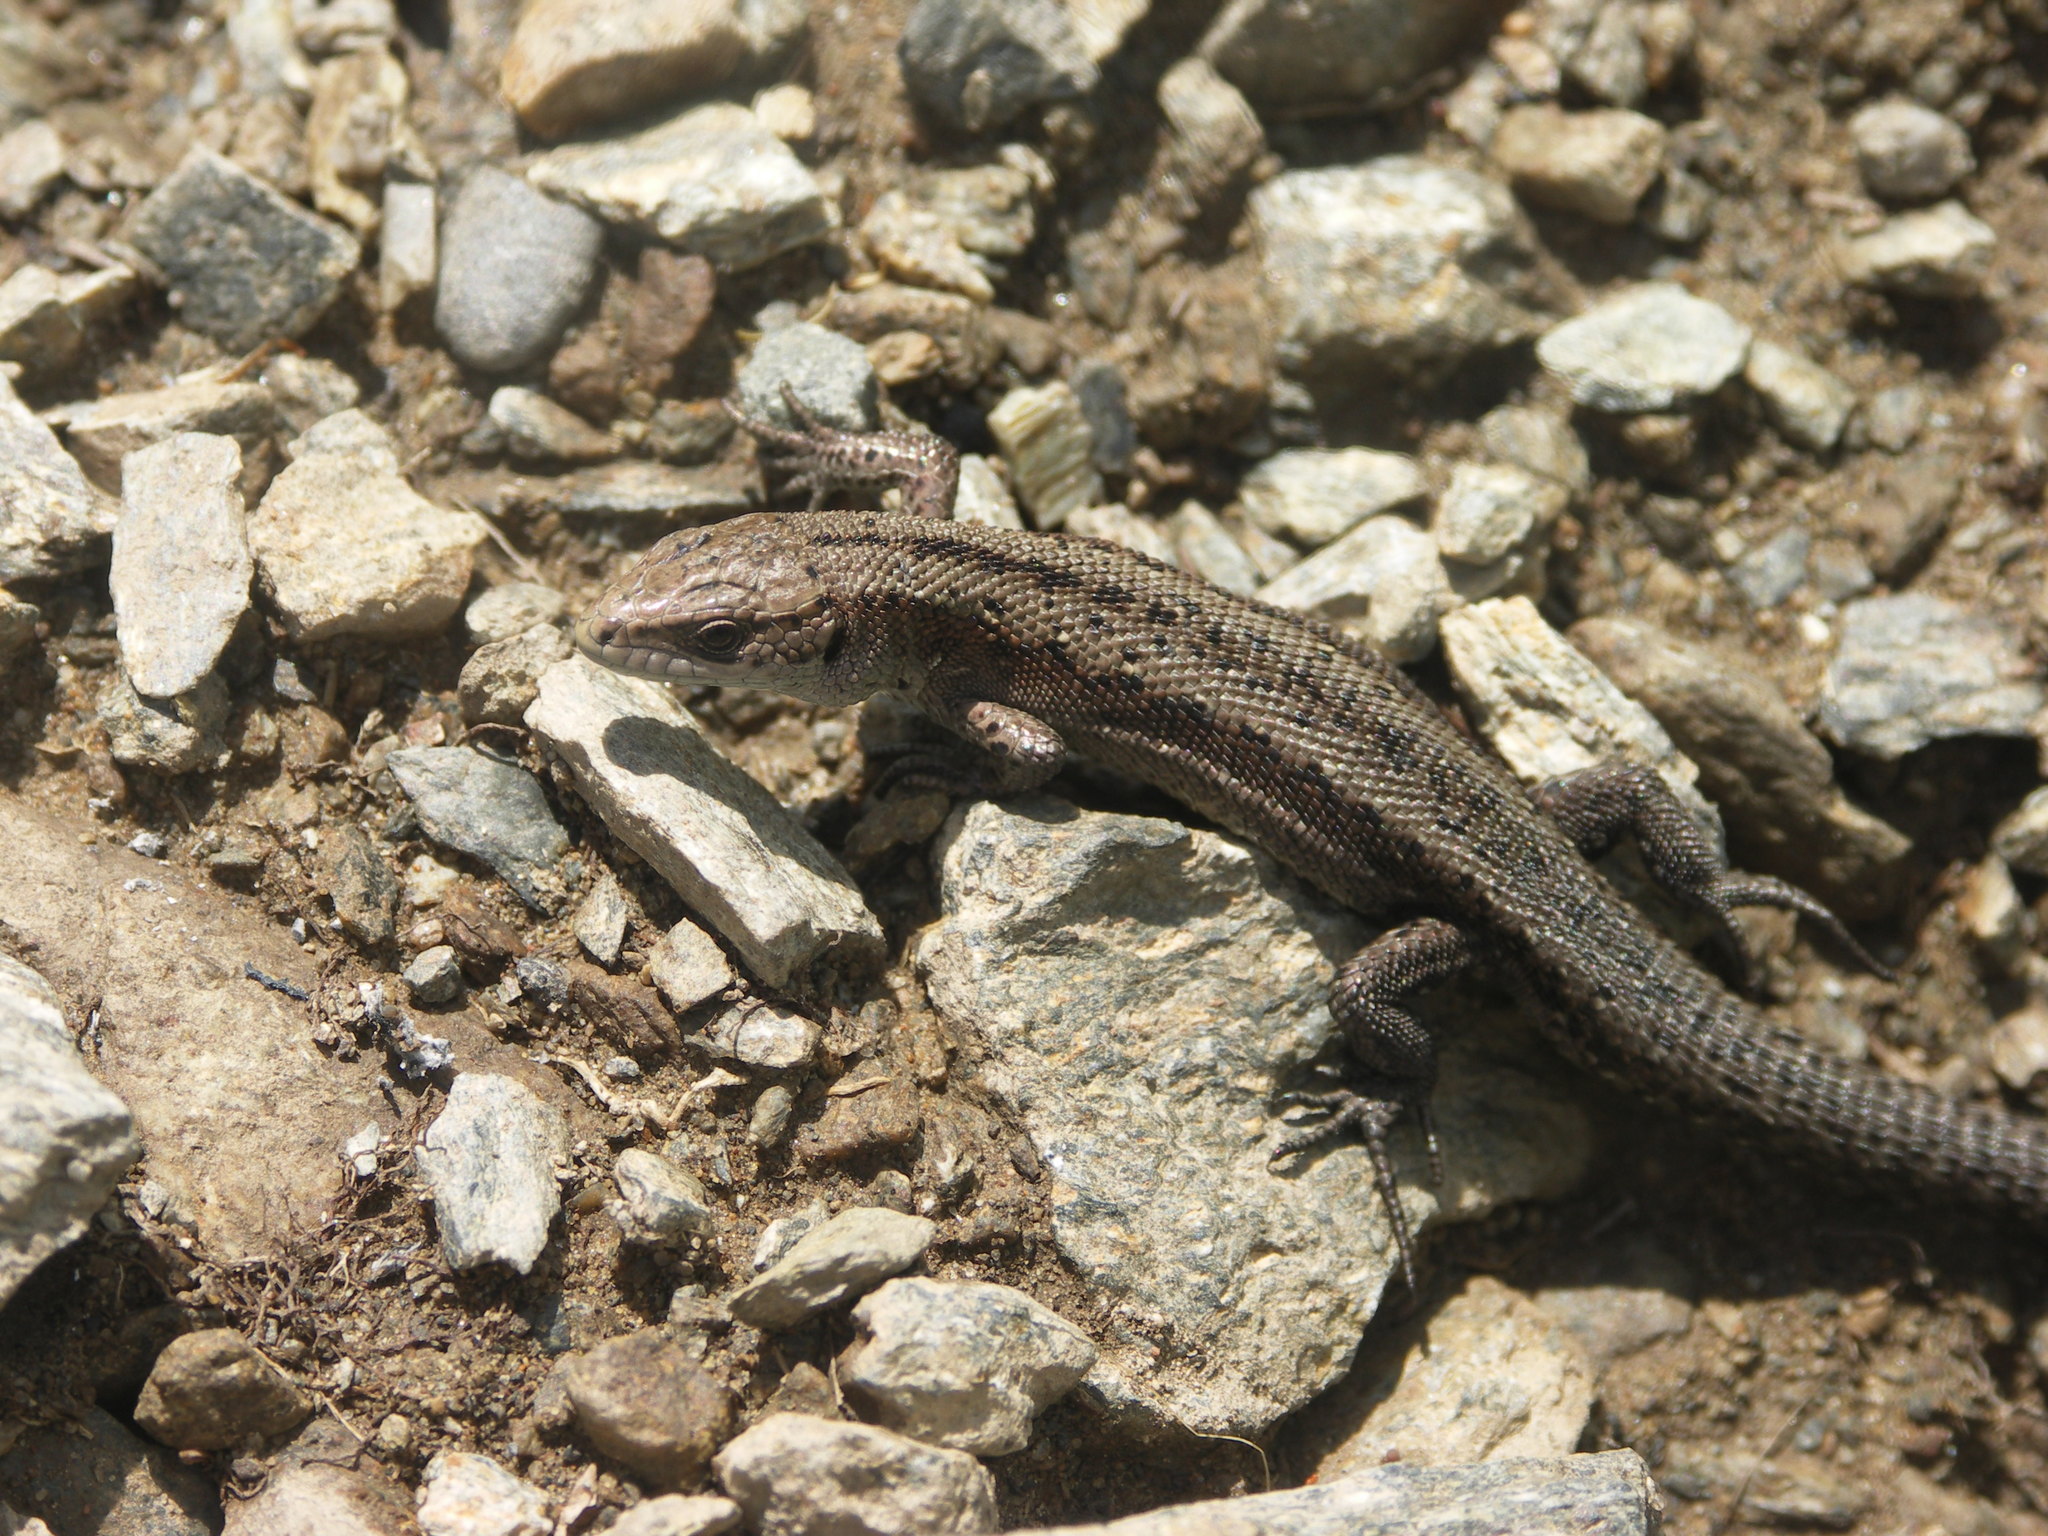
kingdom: Animalia
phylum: Chordata
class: Squamata
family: Lacertidae
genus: Zootoca
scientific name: Zootoca vivipara
